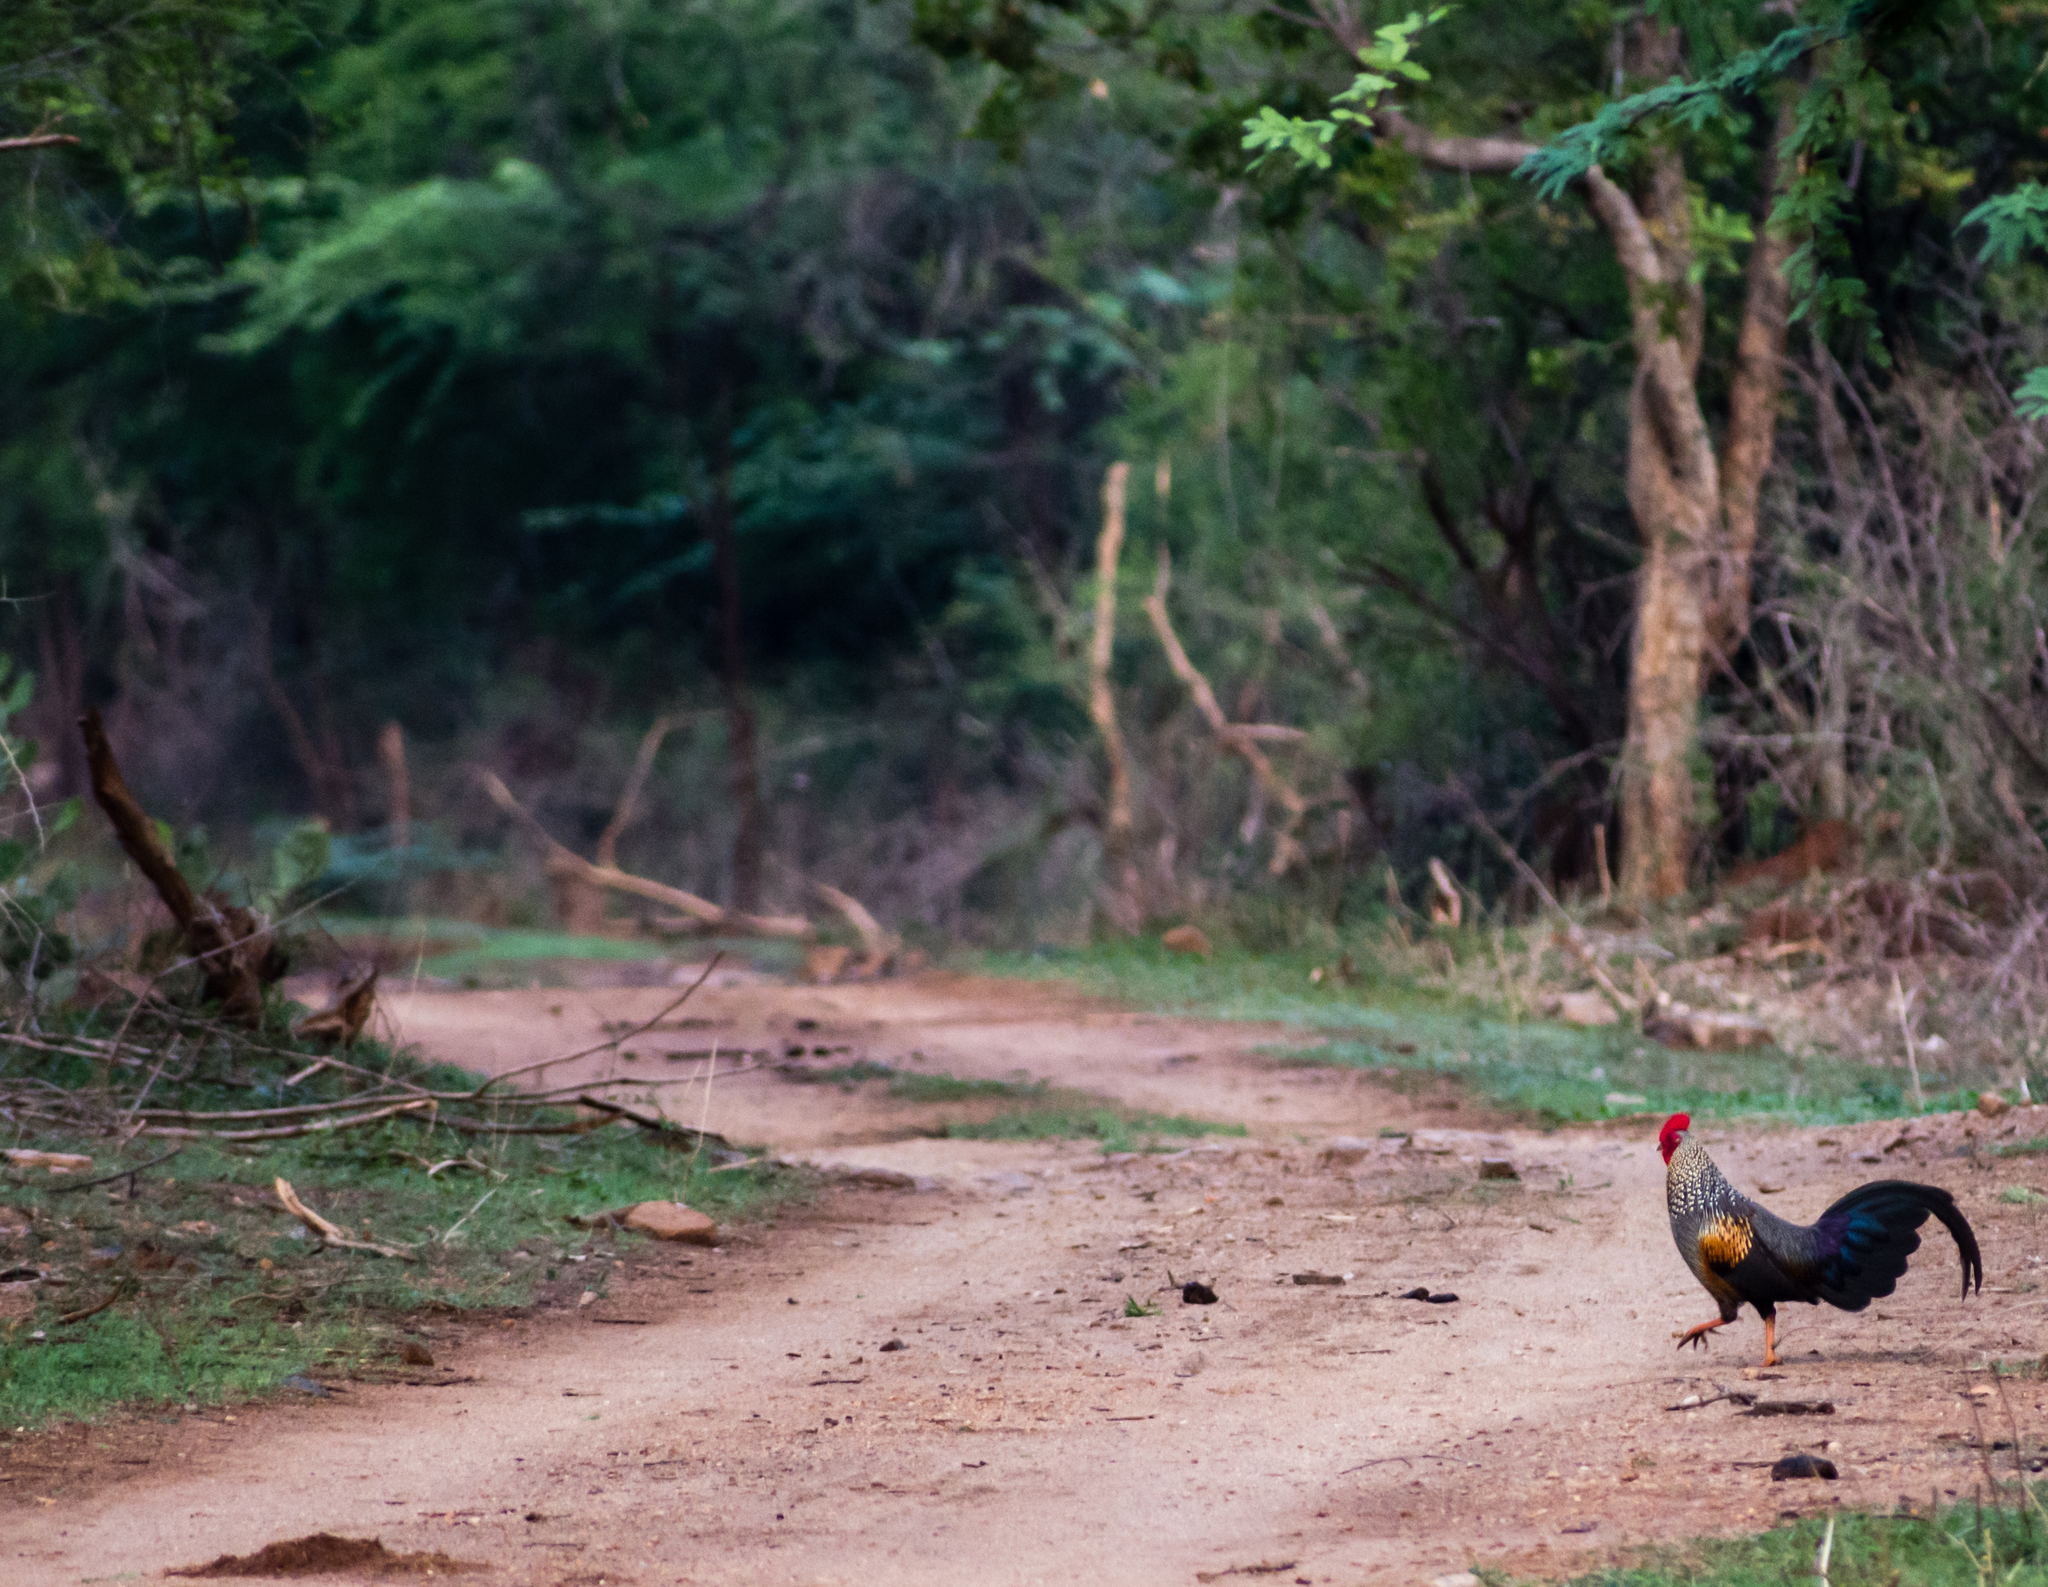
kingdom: Animalia
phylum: Chordata
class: Aves
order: Galliformes
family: Phasianidae
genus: Gallus
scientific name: Gallus sonneratii
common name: Grey junglefowl
